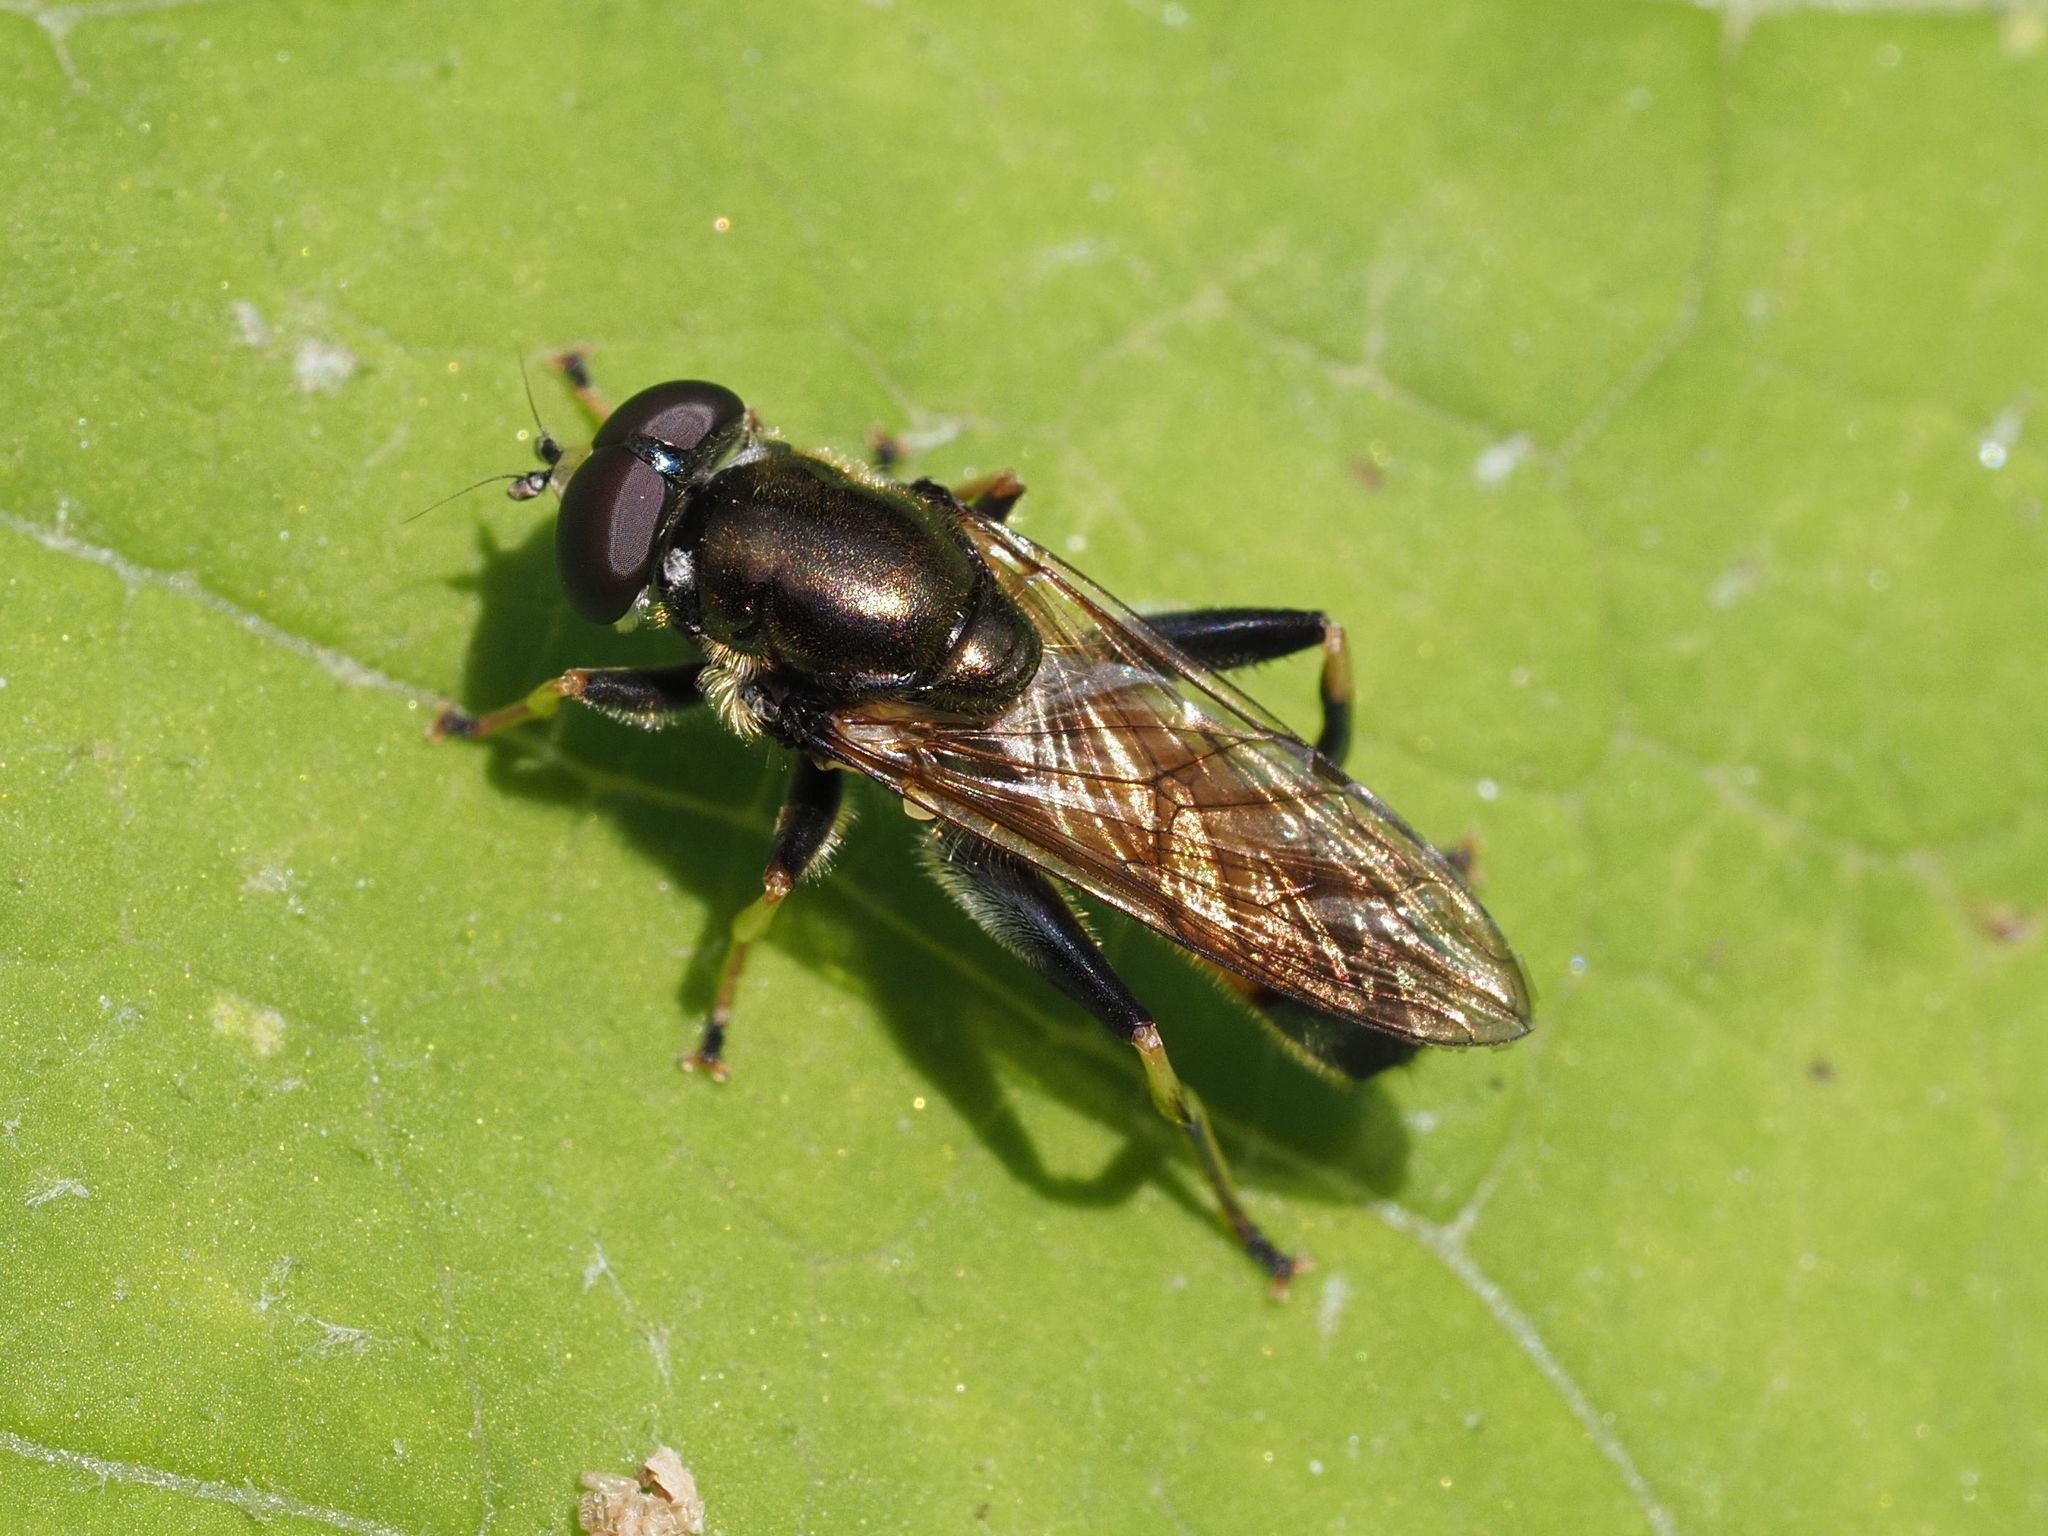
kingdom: Animalia
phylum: Arthropoda
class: Insecta
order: Diptera
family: Syrphidae
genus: Xylota
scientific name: Xylota segnis
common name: Brown-toed forest fly
